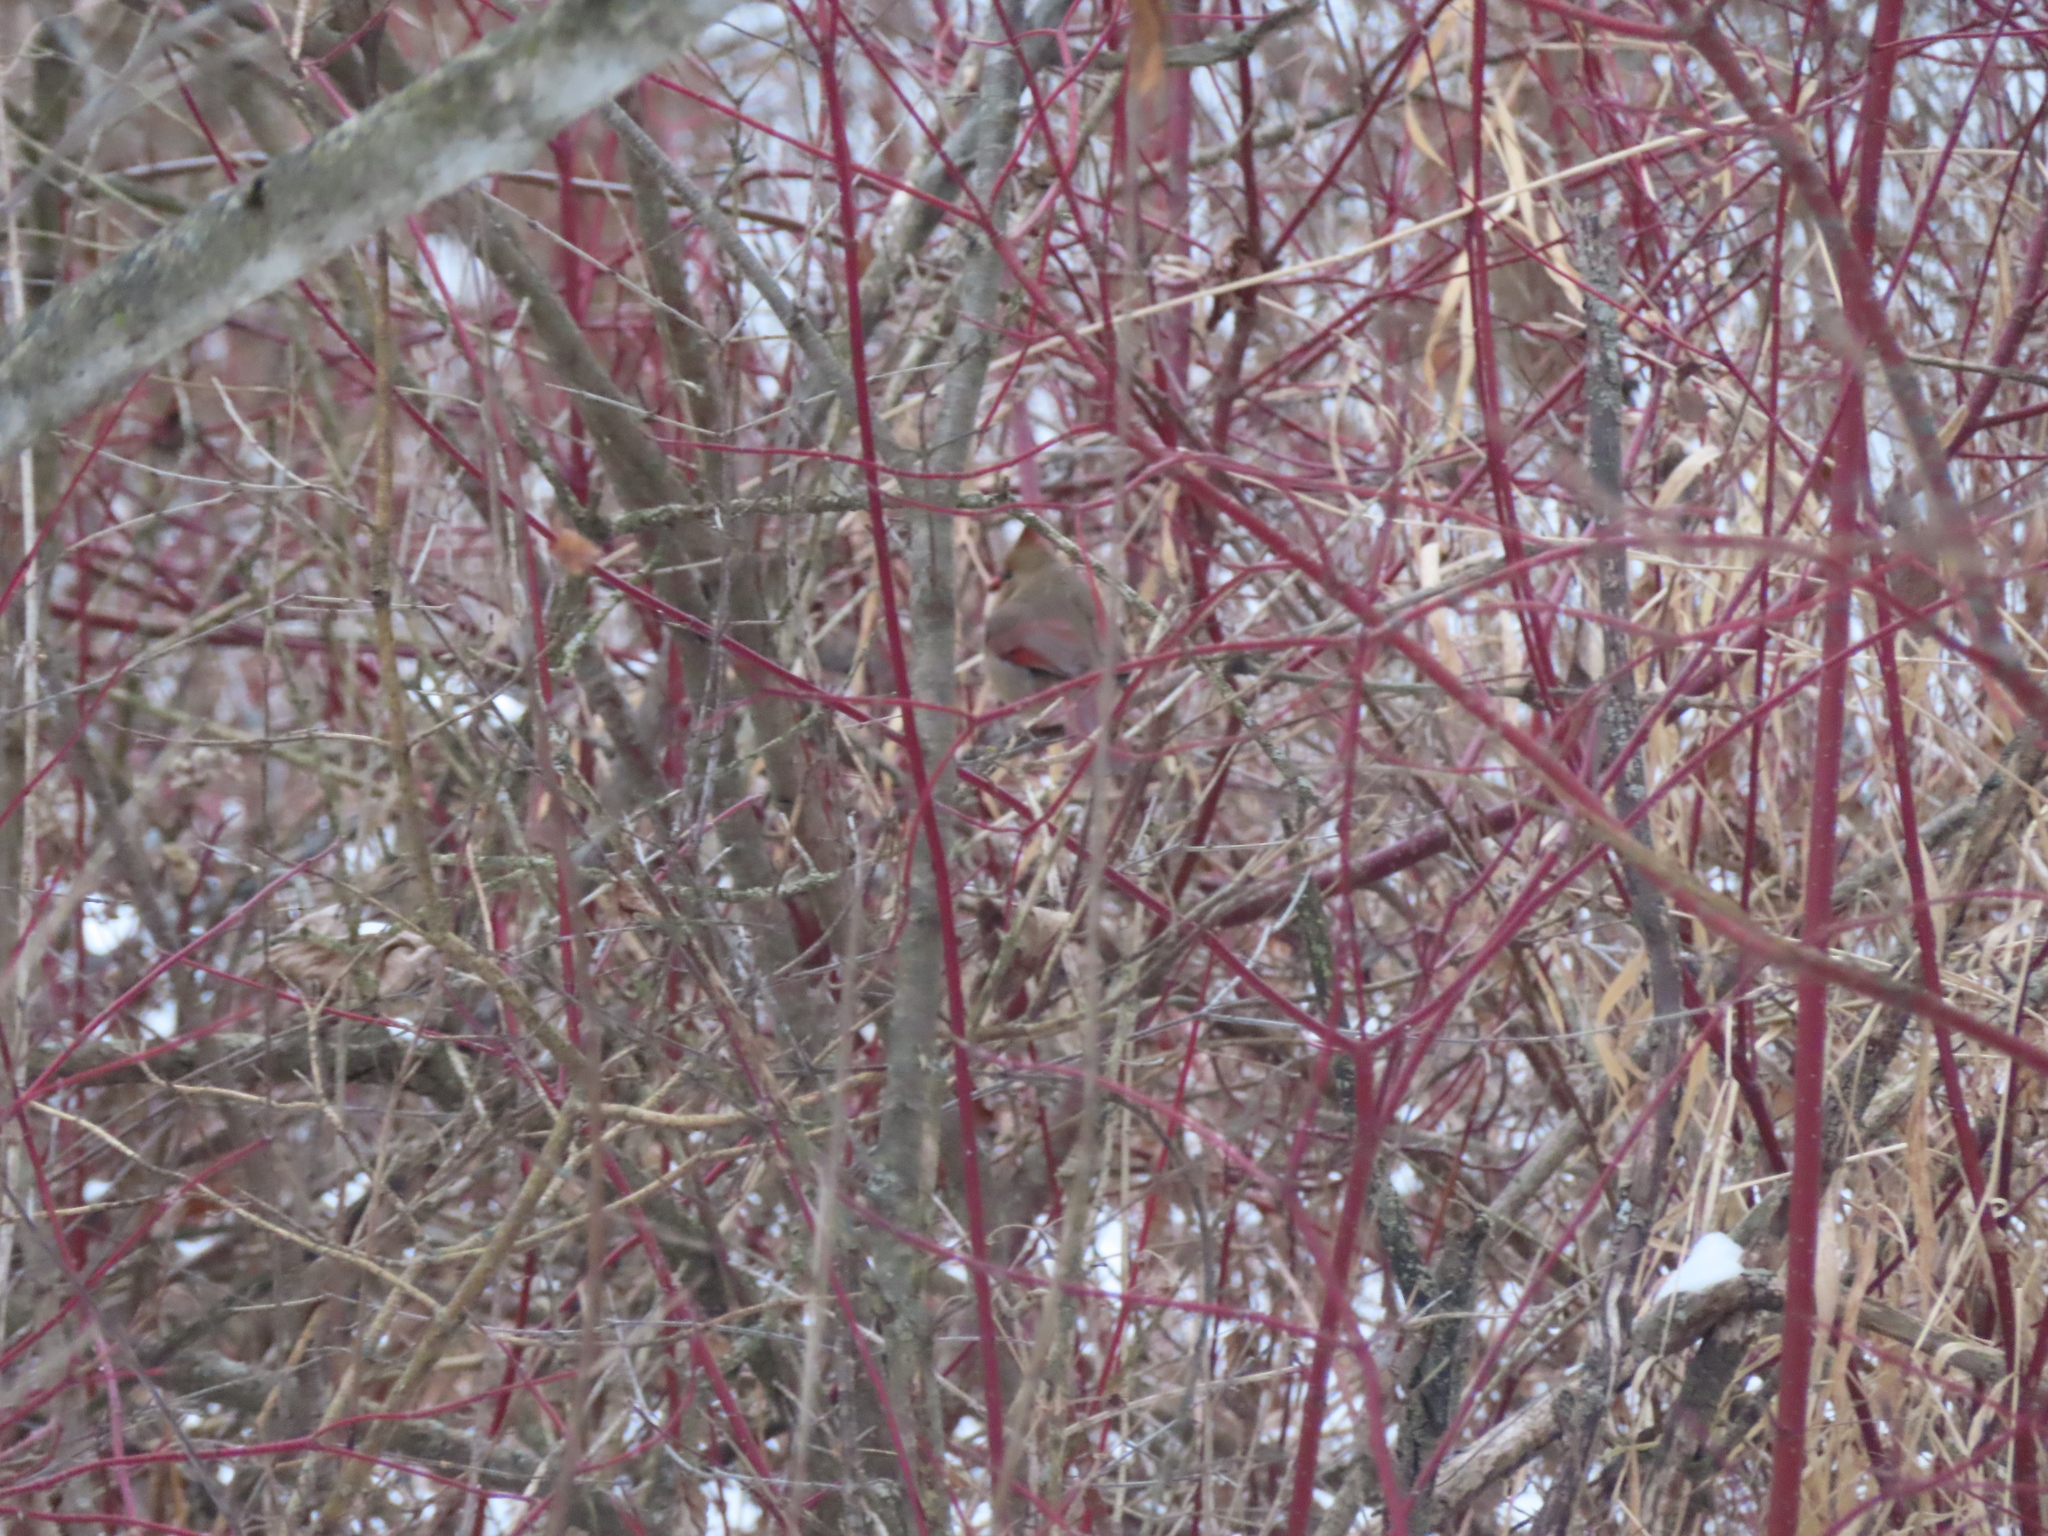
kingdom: Animalia
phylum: Chordata
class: Aves
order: Passeriformes
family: Cardinalidae
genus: Cardinalis
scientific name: Cardinalis cardinalis
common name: Northern cardinal
